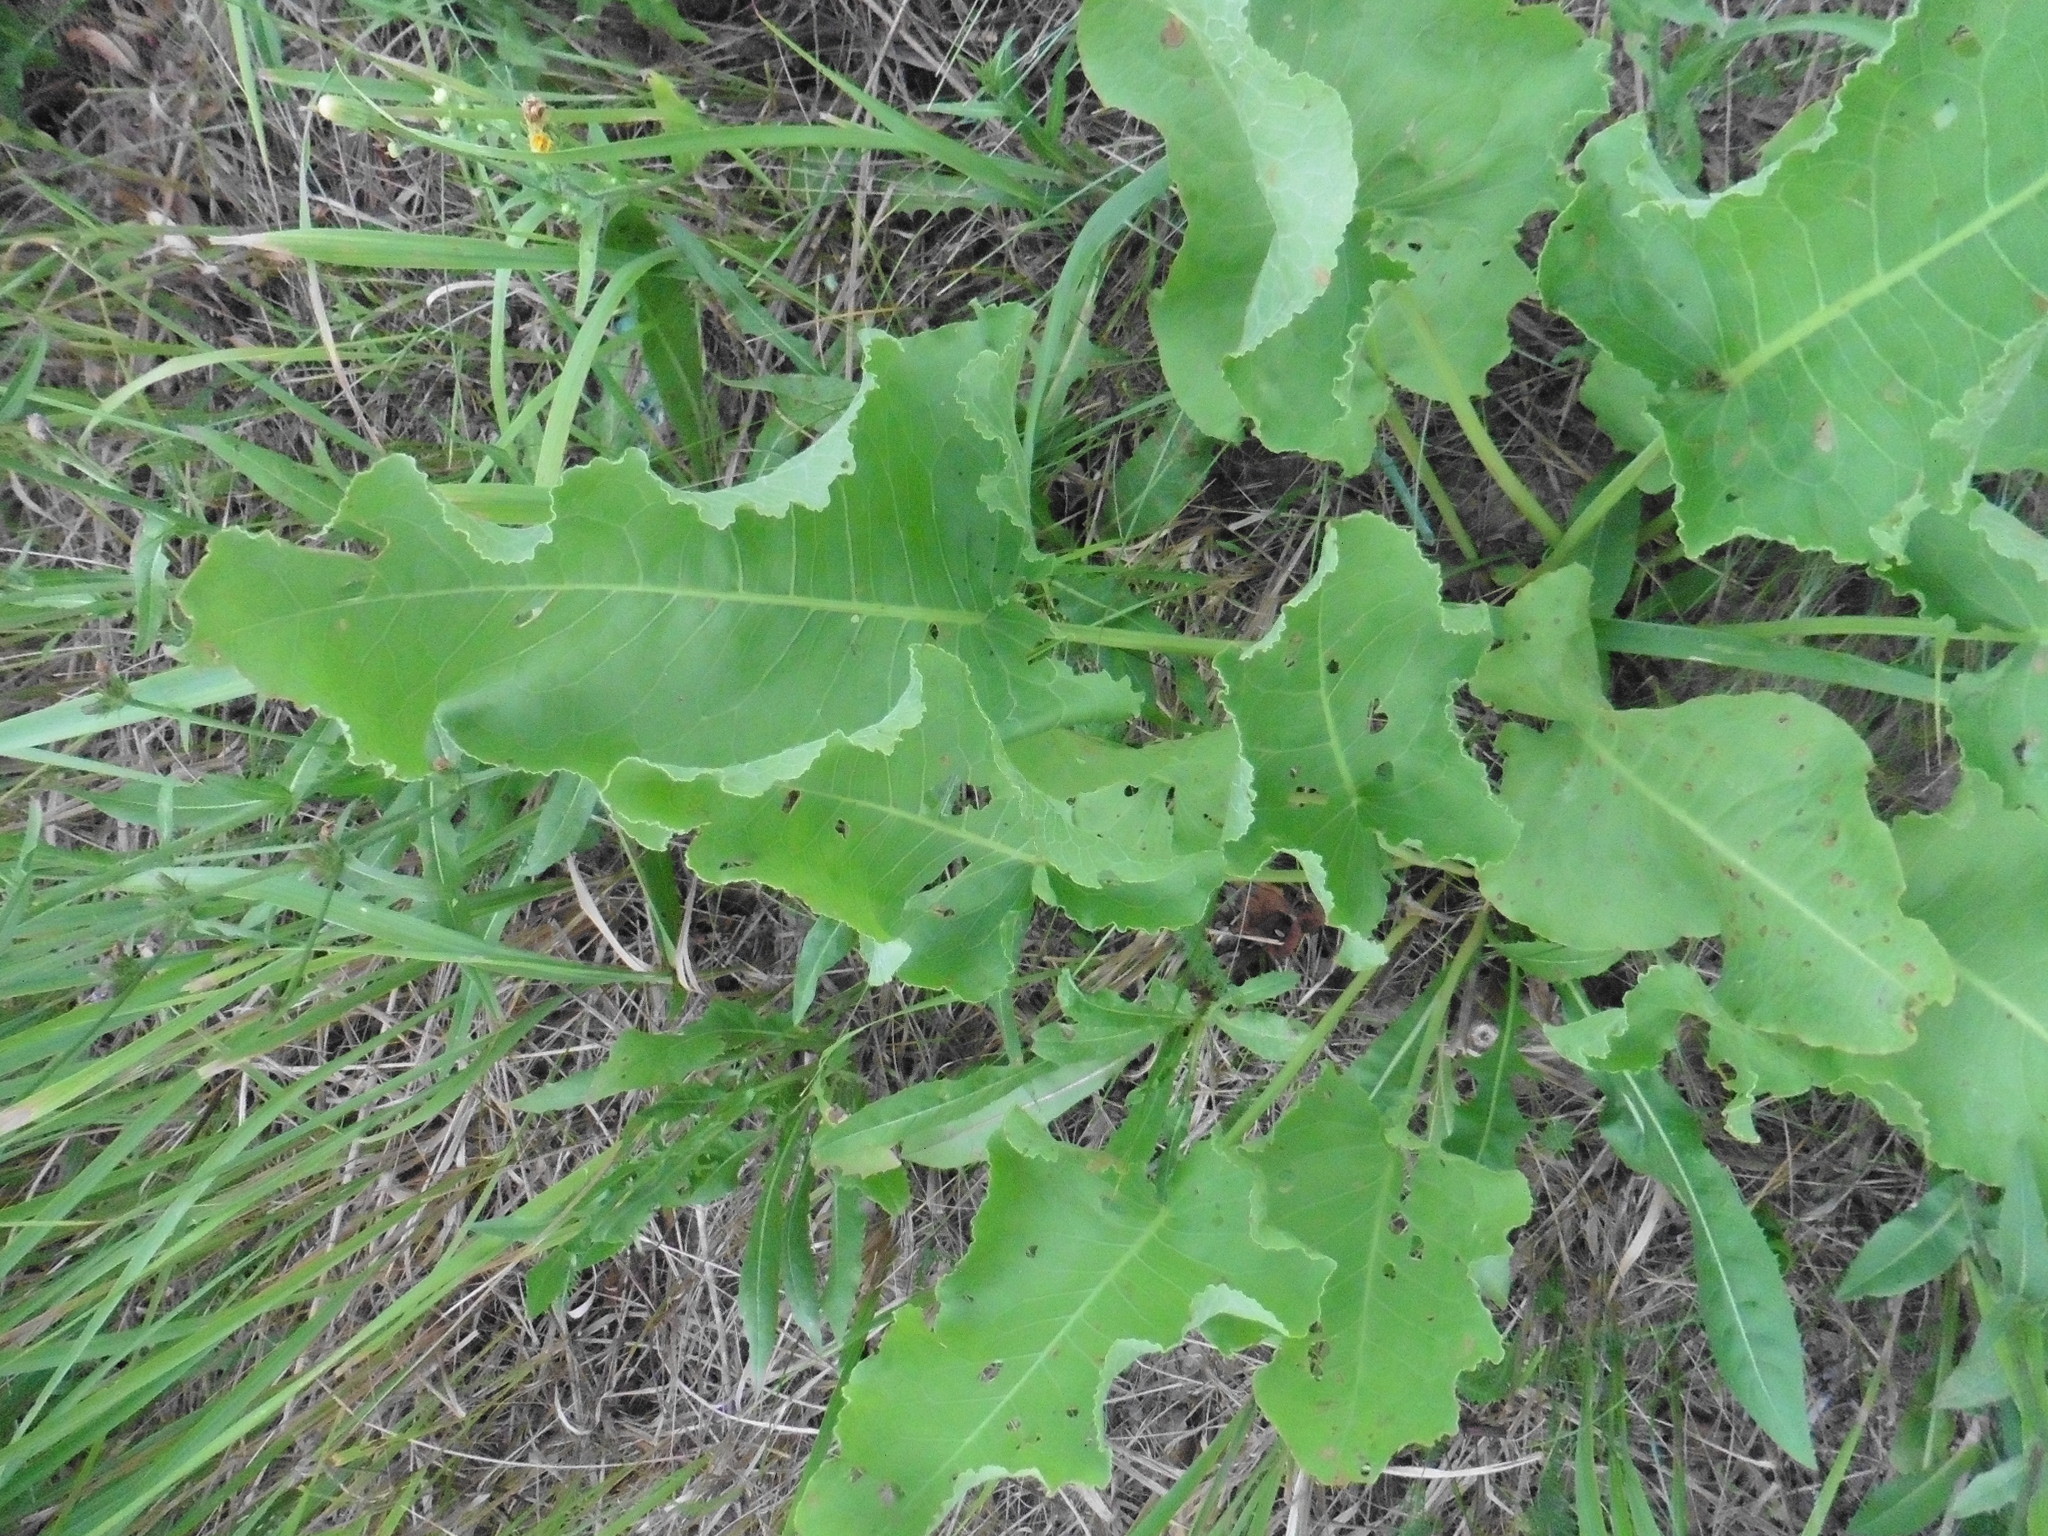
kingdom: Plantae
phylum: Tracheophyta
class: Magnoliopsida
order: Caryophyllales
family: Polygonaceae
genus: Rumex
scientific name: Rumex confertus
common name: Russian dock
